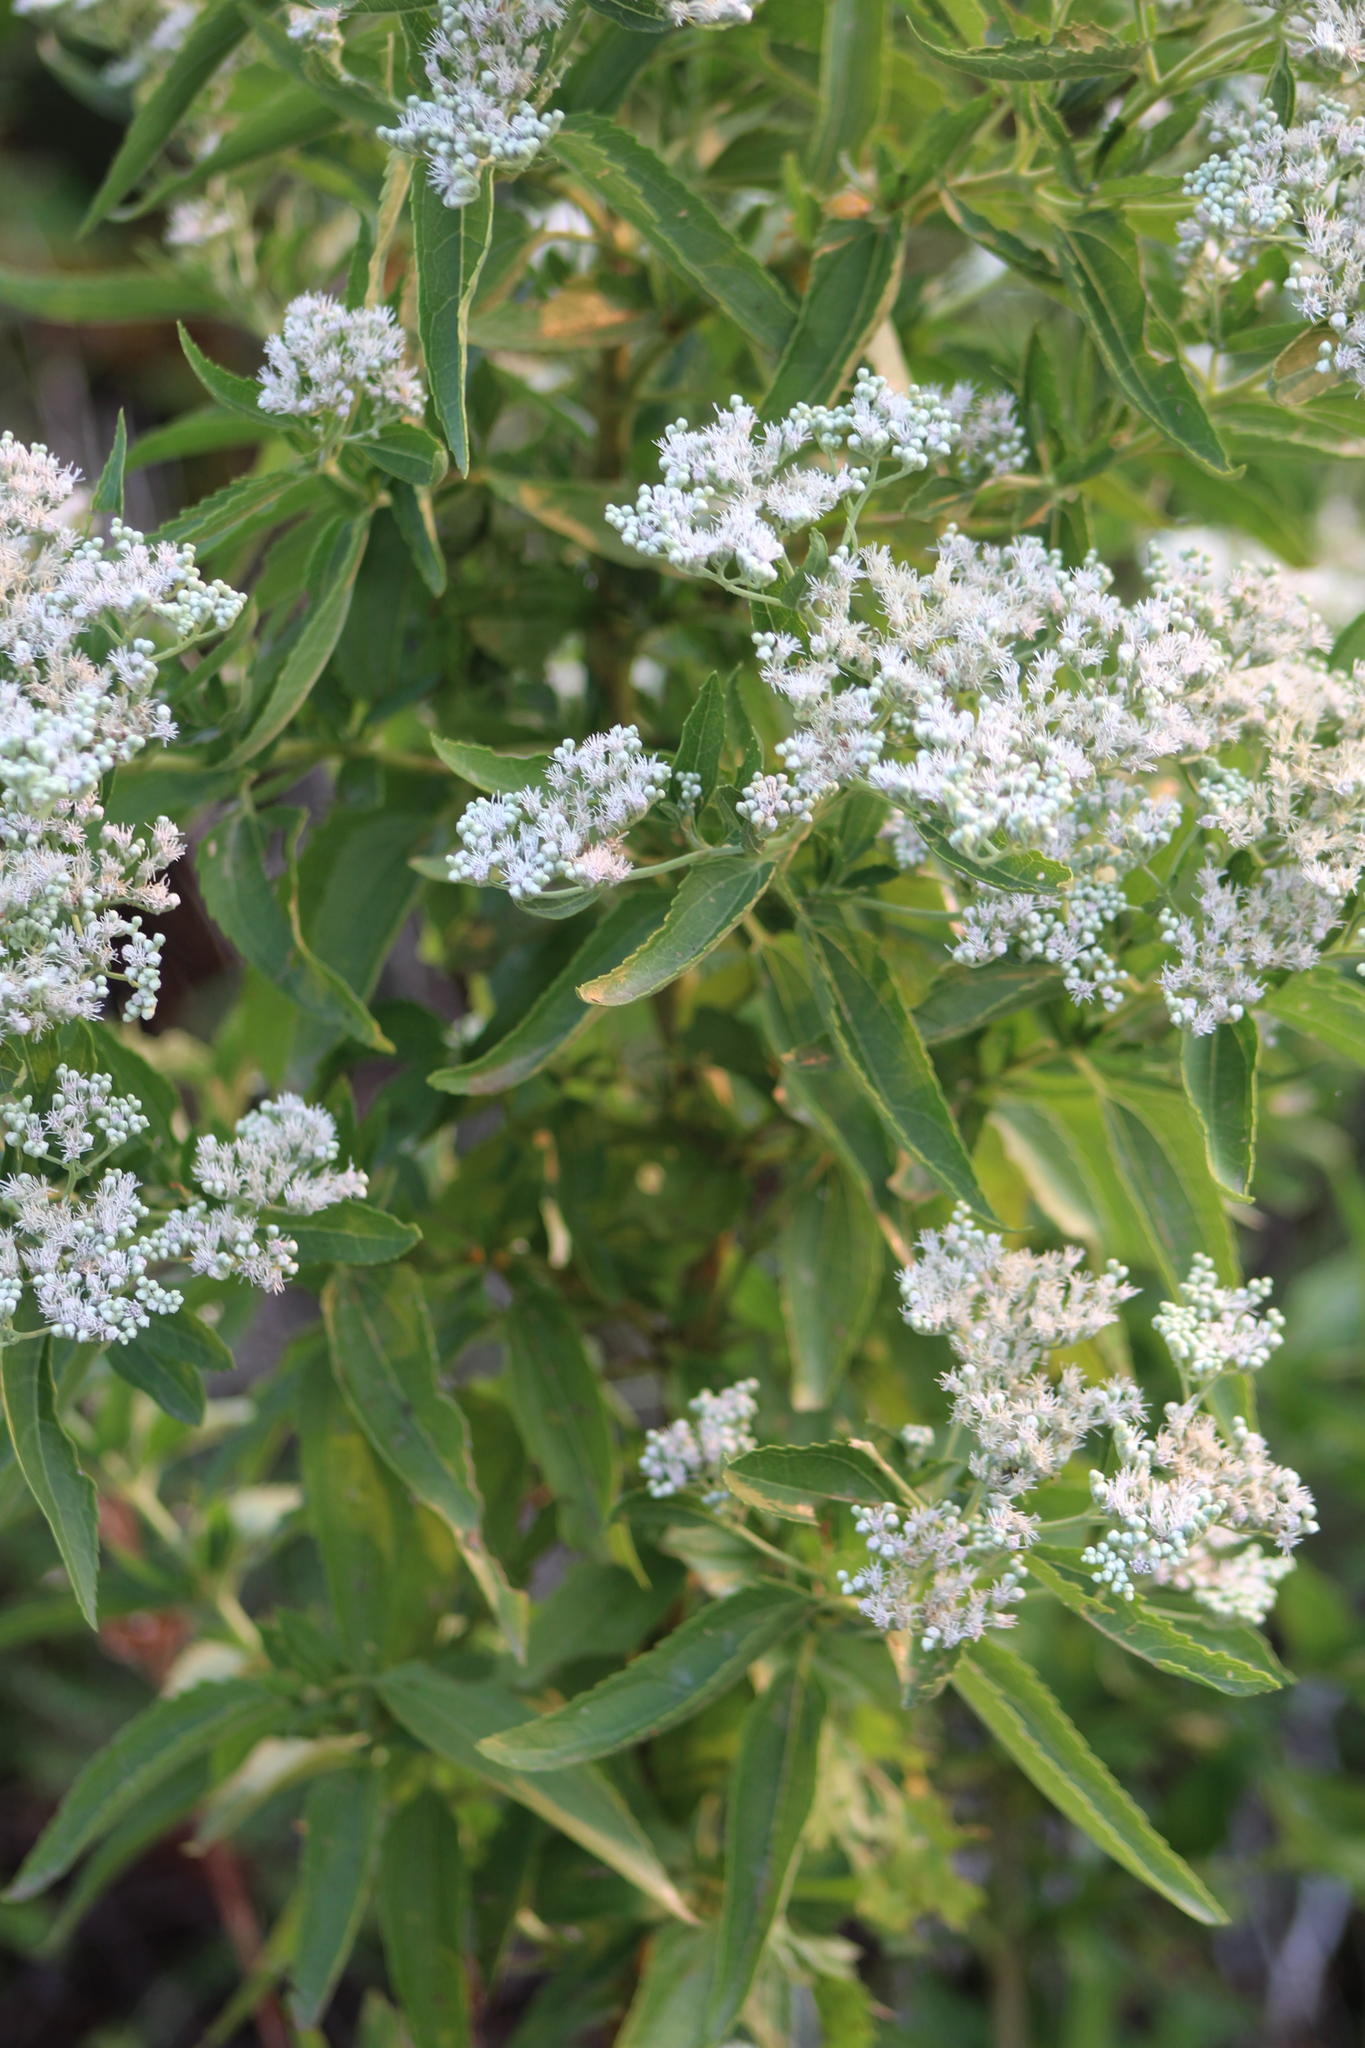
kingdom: Plantae
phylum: Tracheophyta
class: Magnoliopsida
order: Asterales
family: Asteraceae
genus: Eupatorium
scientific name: Eupatorium serotinum
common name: Late boneset
